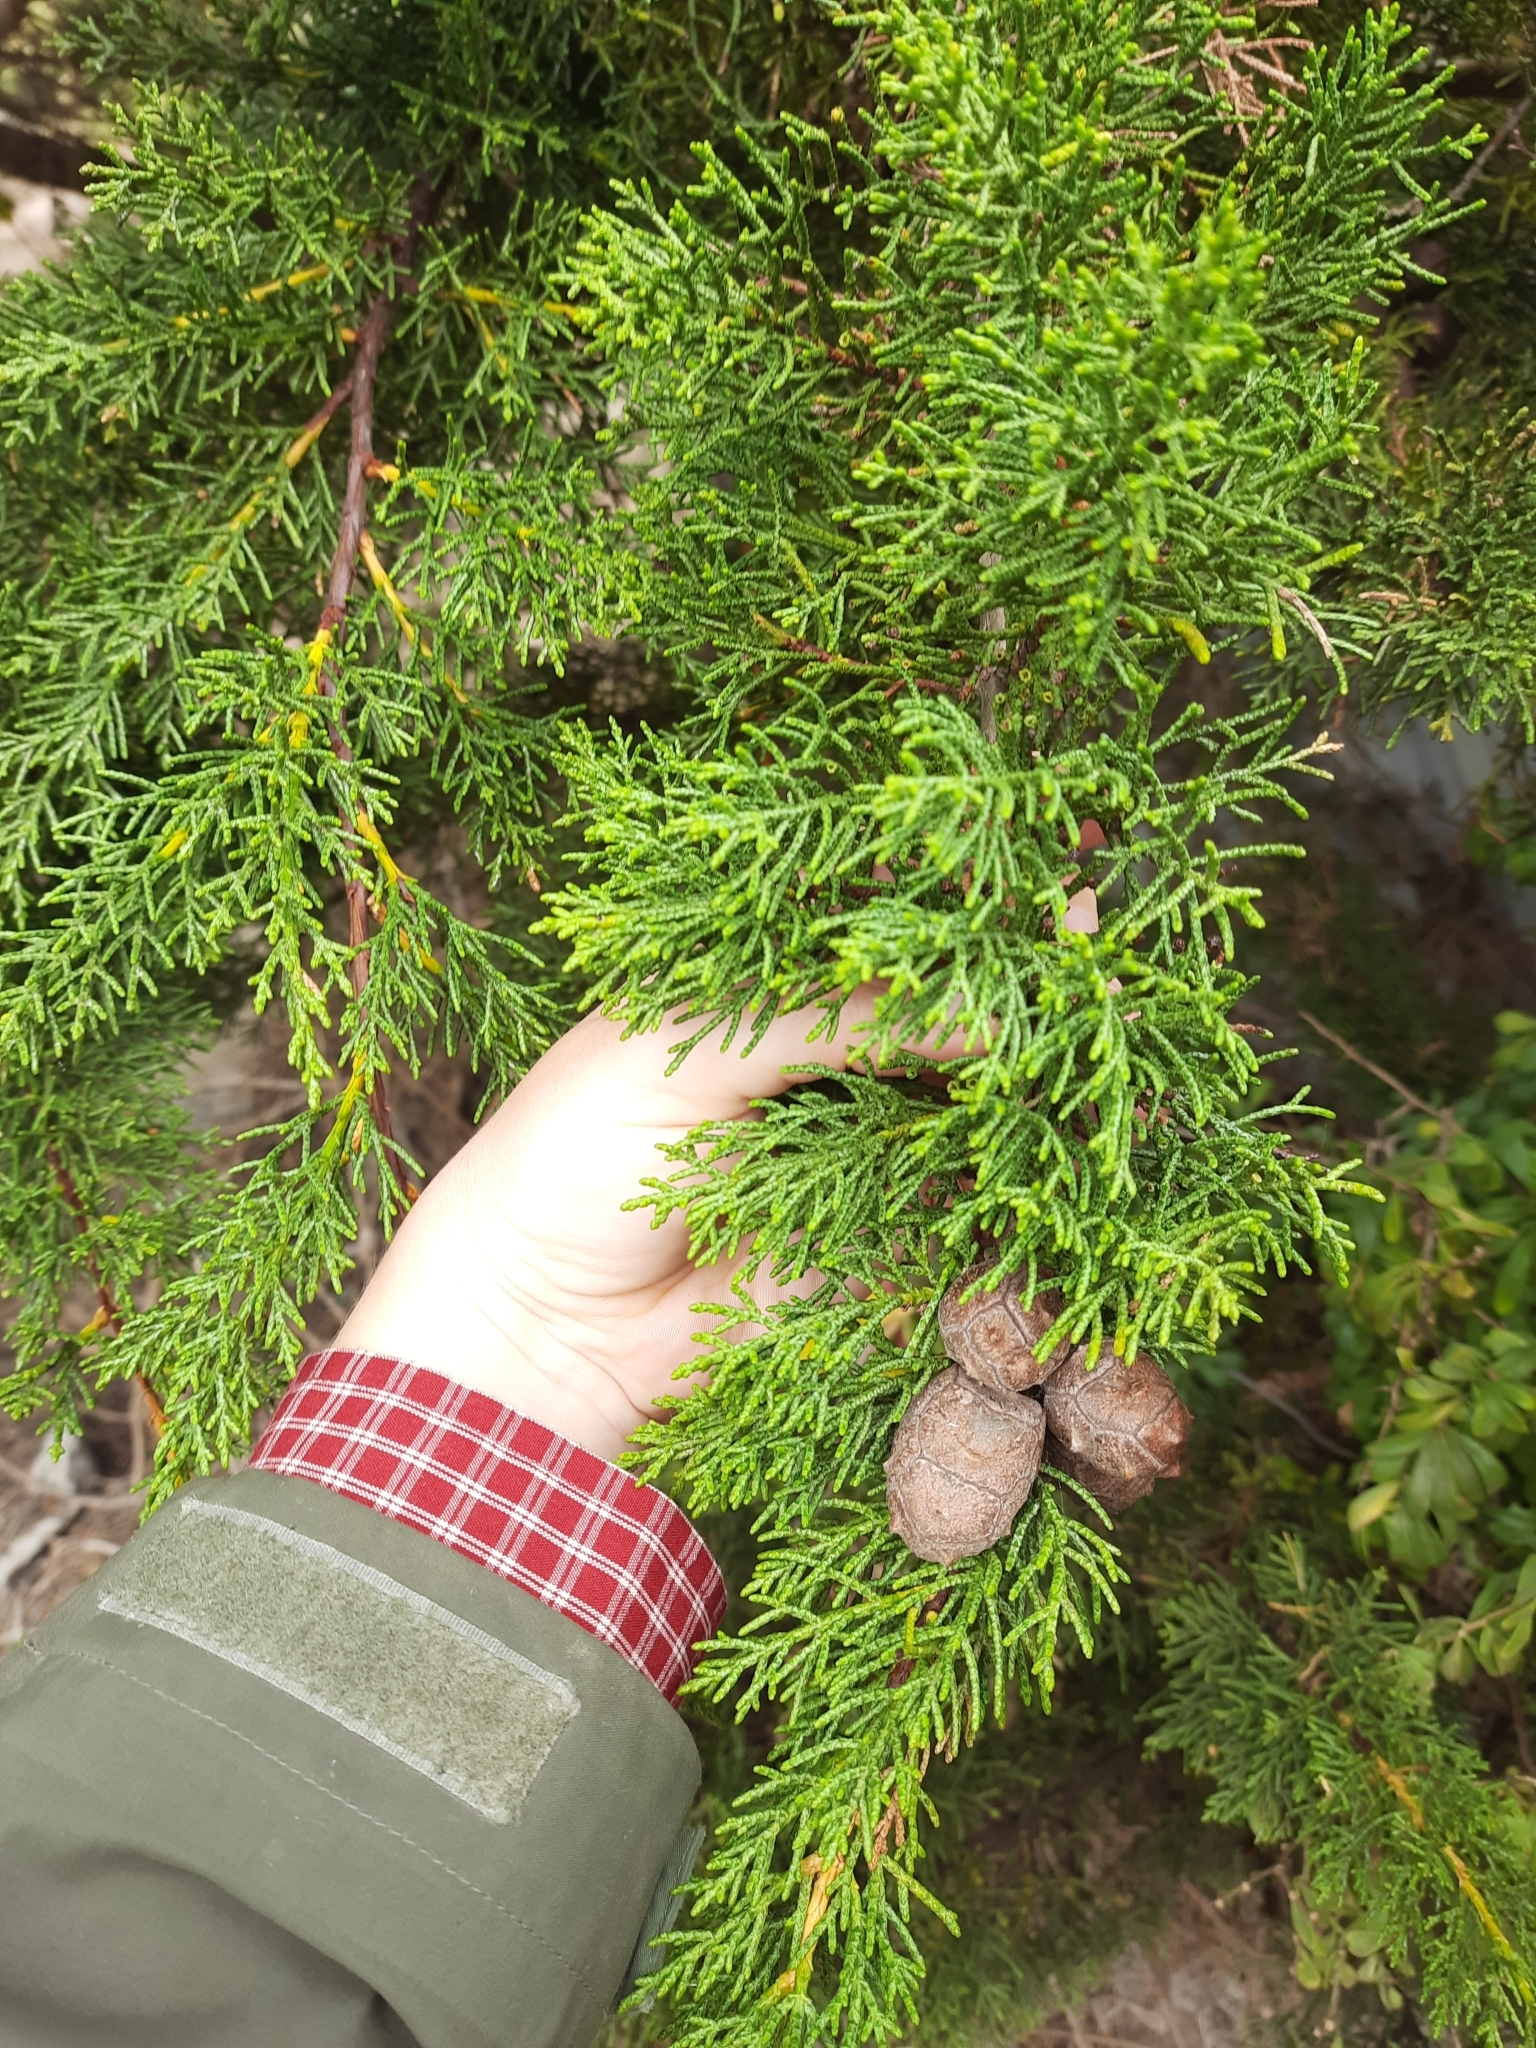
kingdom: Plantae
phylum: Tracheophyta
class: Pinopsida
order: Pinales
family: Cupressaceae
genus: Cupressus
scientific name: Cupressus macrocarpa
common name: Monterey cypress
